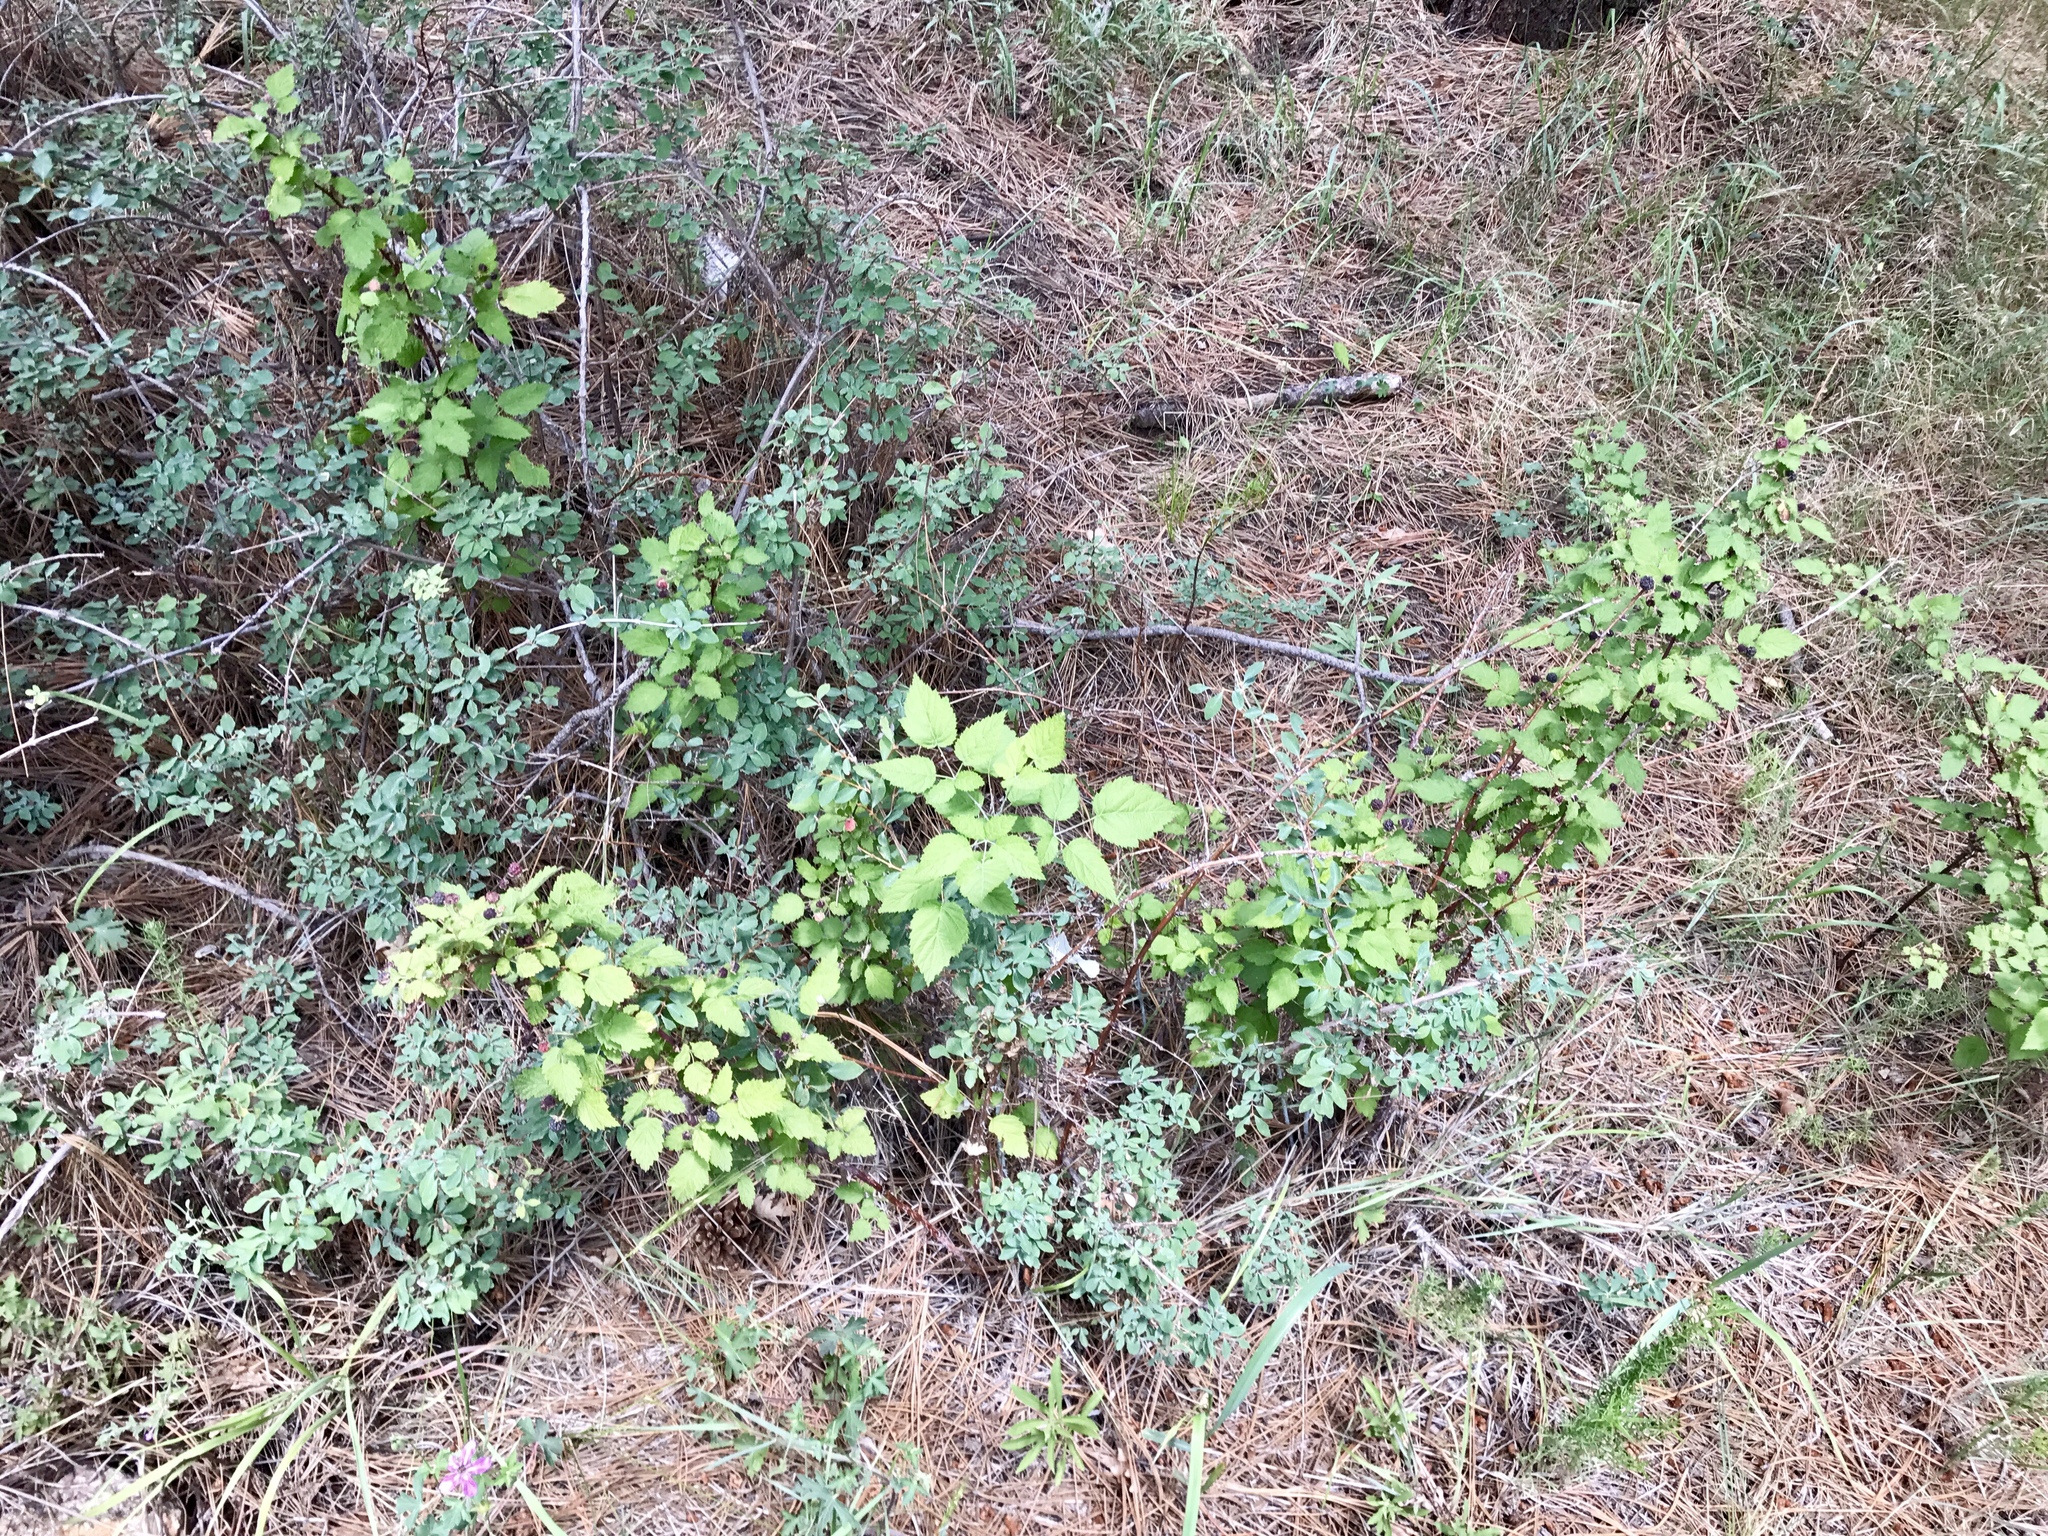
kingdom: Plantae
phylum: Tracheophyta
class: Magnoliopsida
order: Rosales
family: Rosaceae
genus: Rubus
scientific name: Rubus leucodermis
